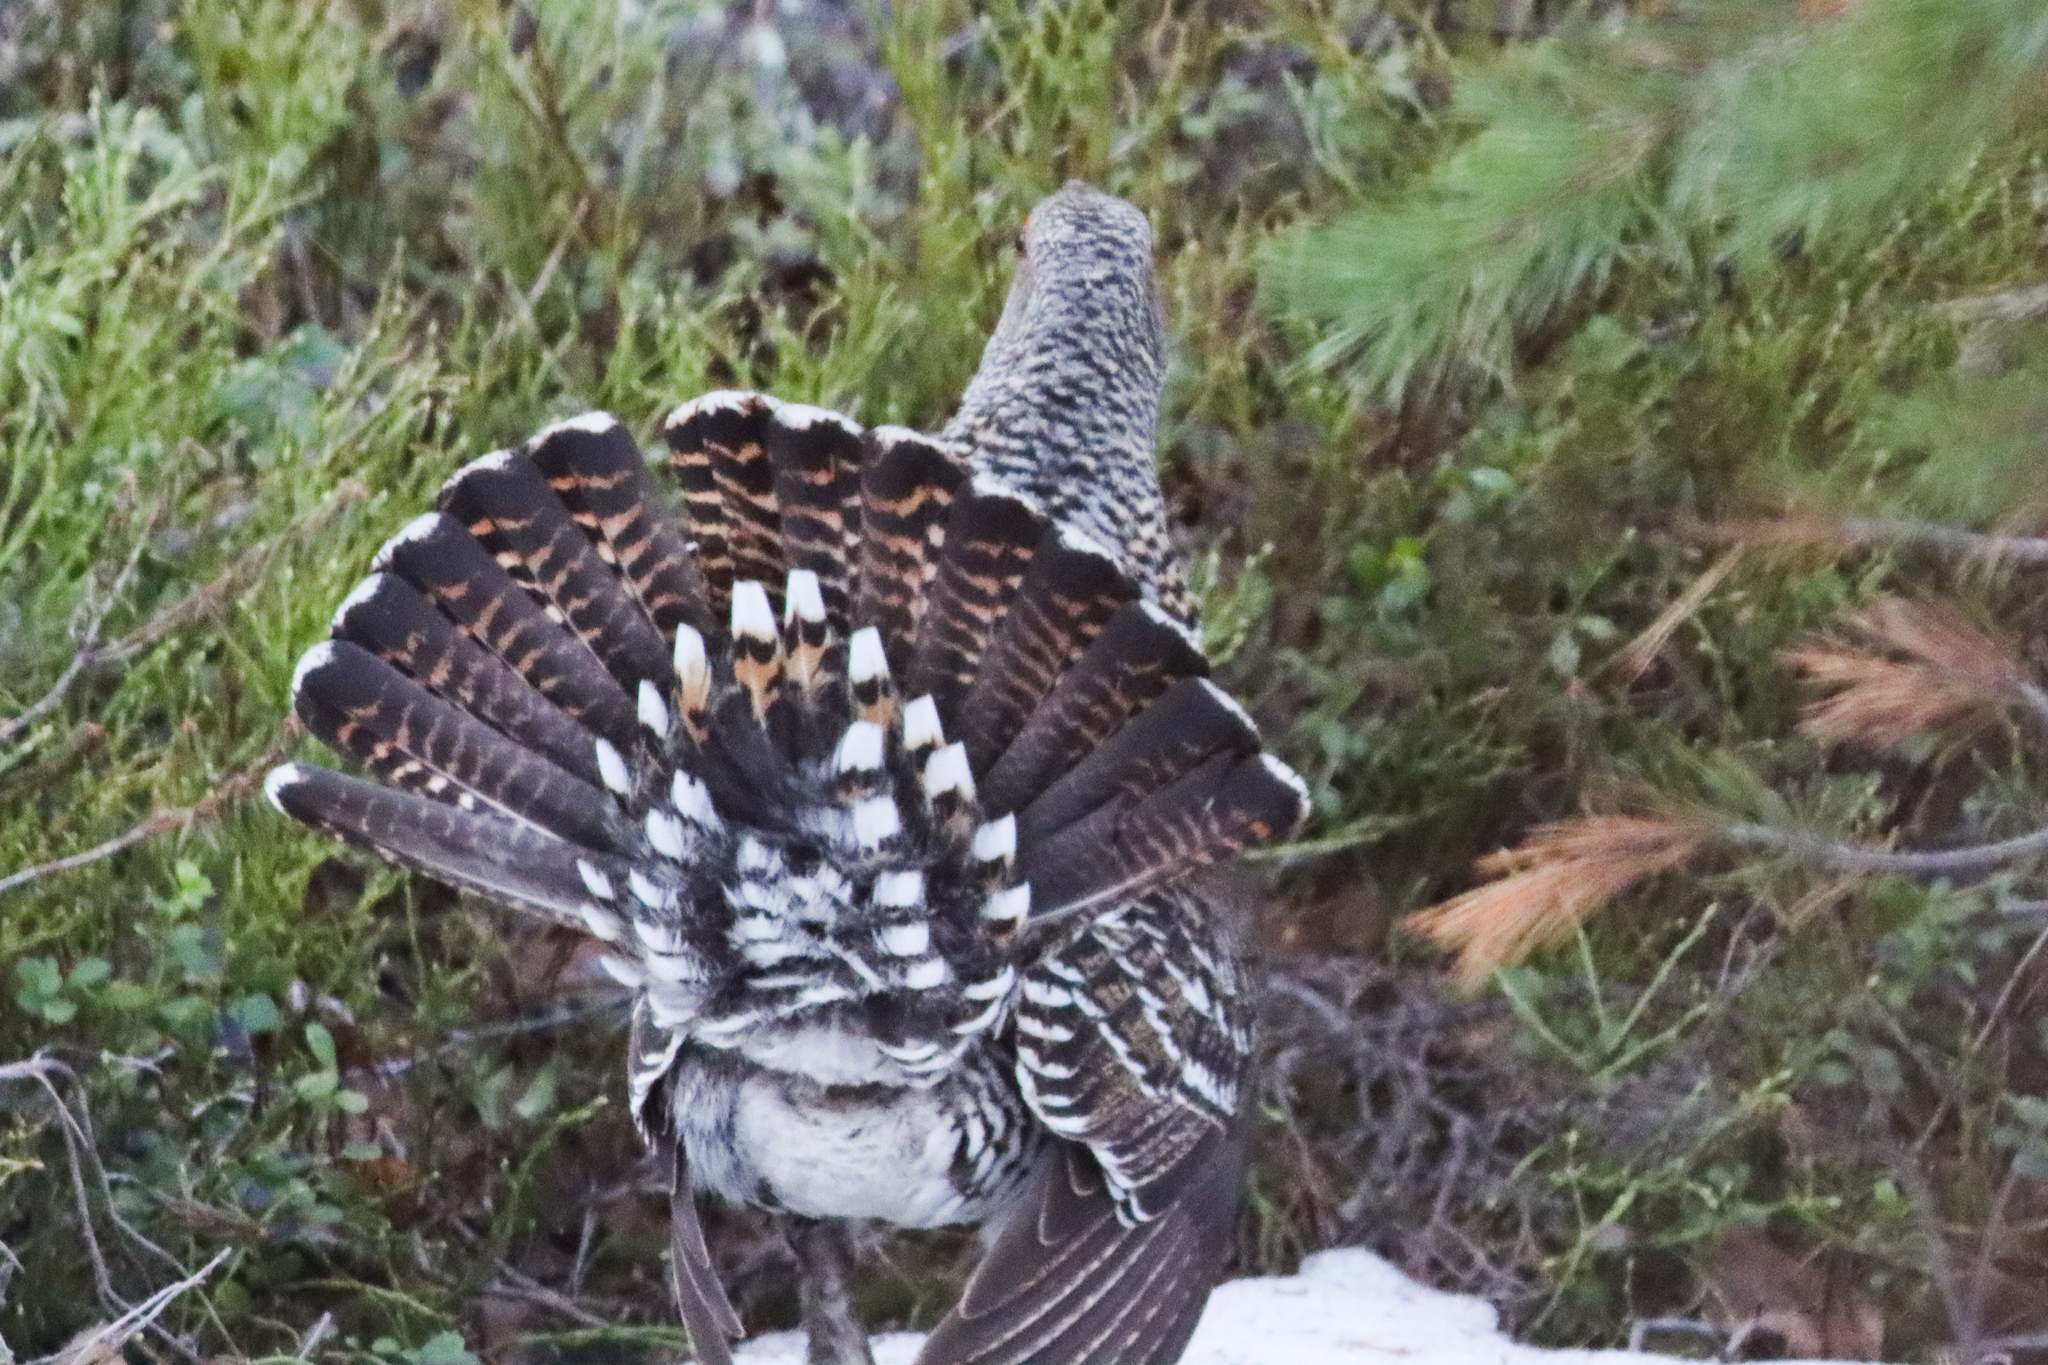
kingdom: Animalia
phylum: Chordata
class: Aves
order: Galliformes
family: Phasianidae
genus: Tetrao
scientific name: Tetrao urogallus
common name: Western capercaillie
